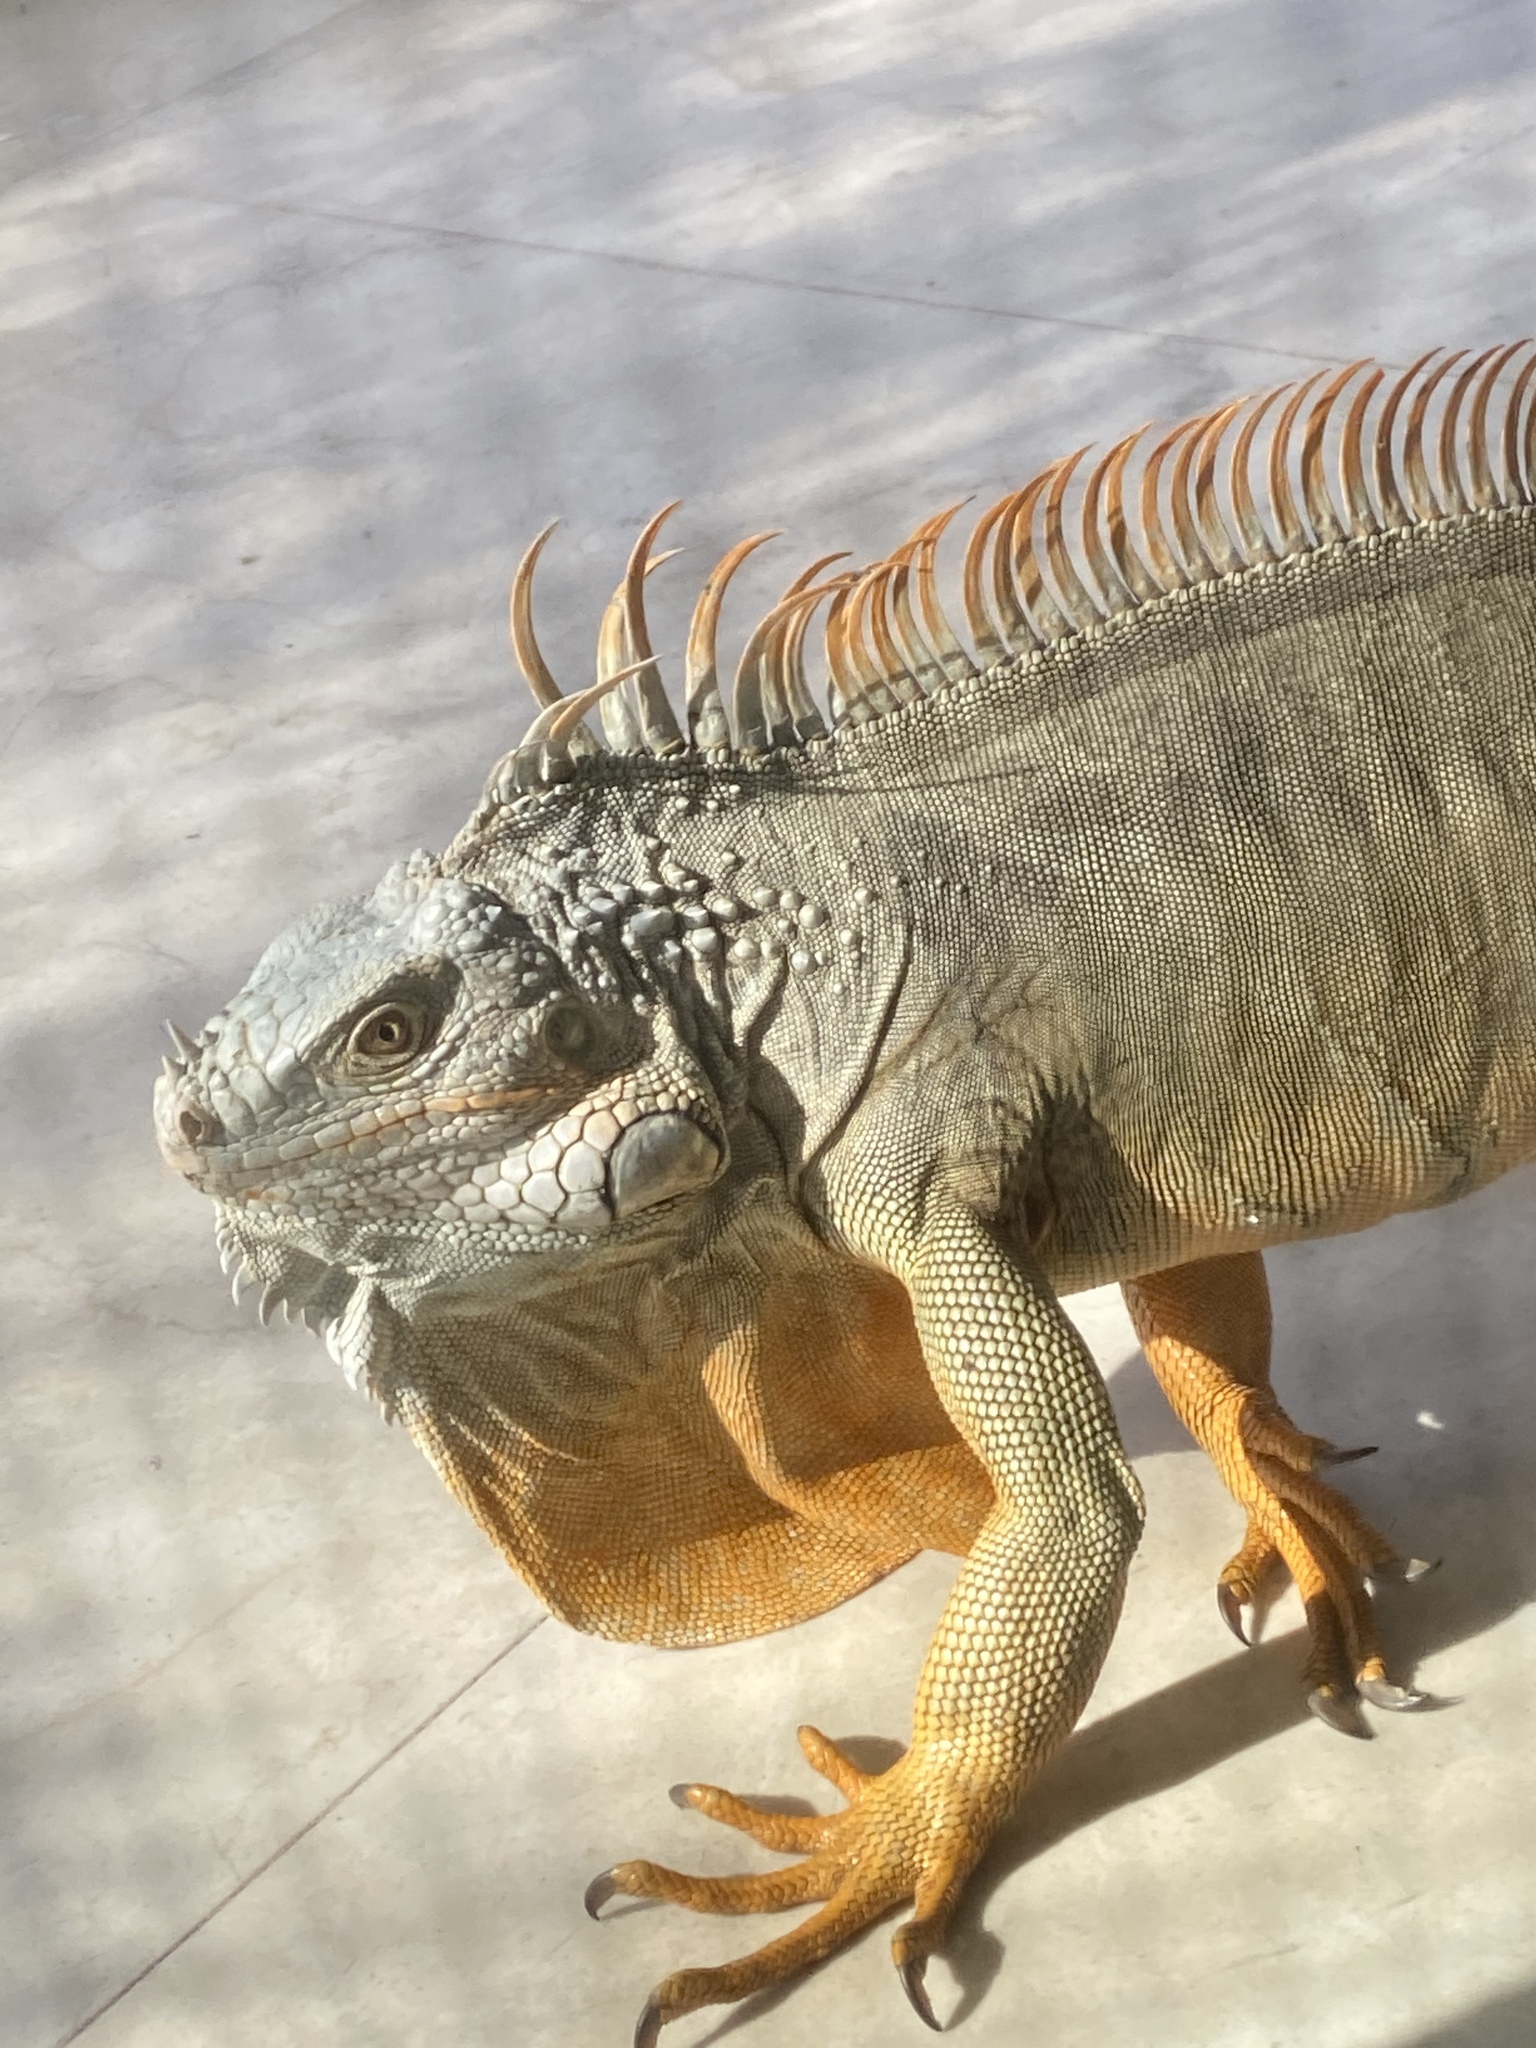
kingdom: Animalia
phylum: Chordata
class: Squamata
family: Iguanidae
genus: Iguana
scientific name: Iguana iguana
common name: Green iguana
